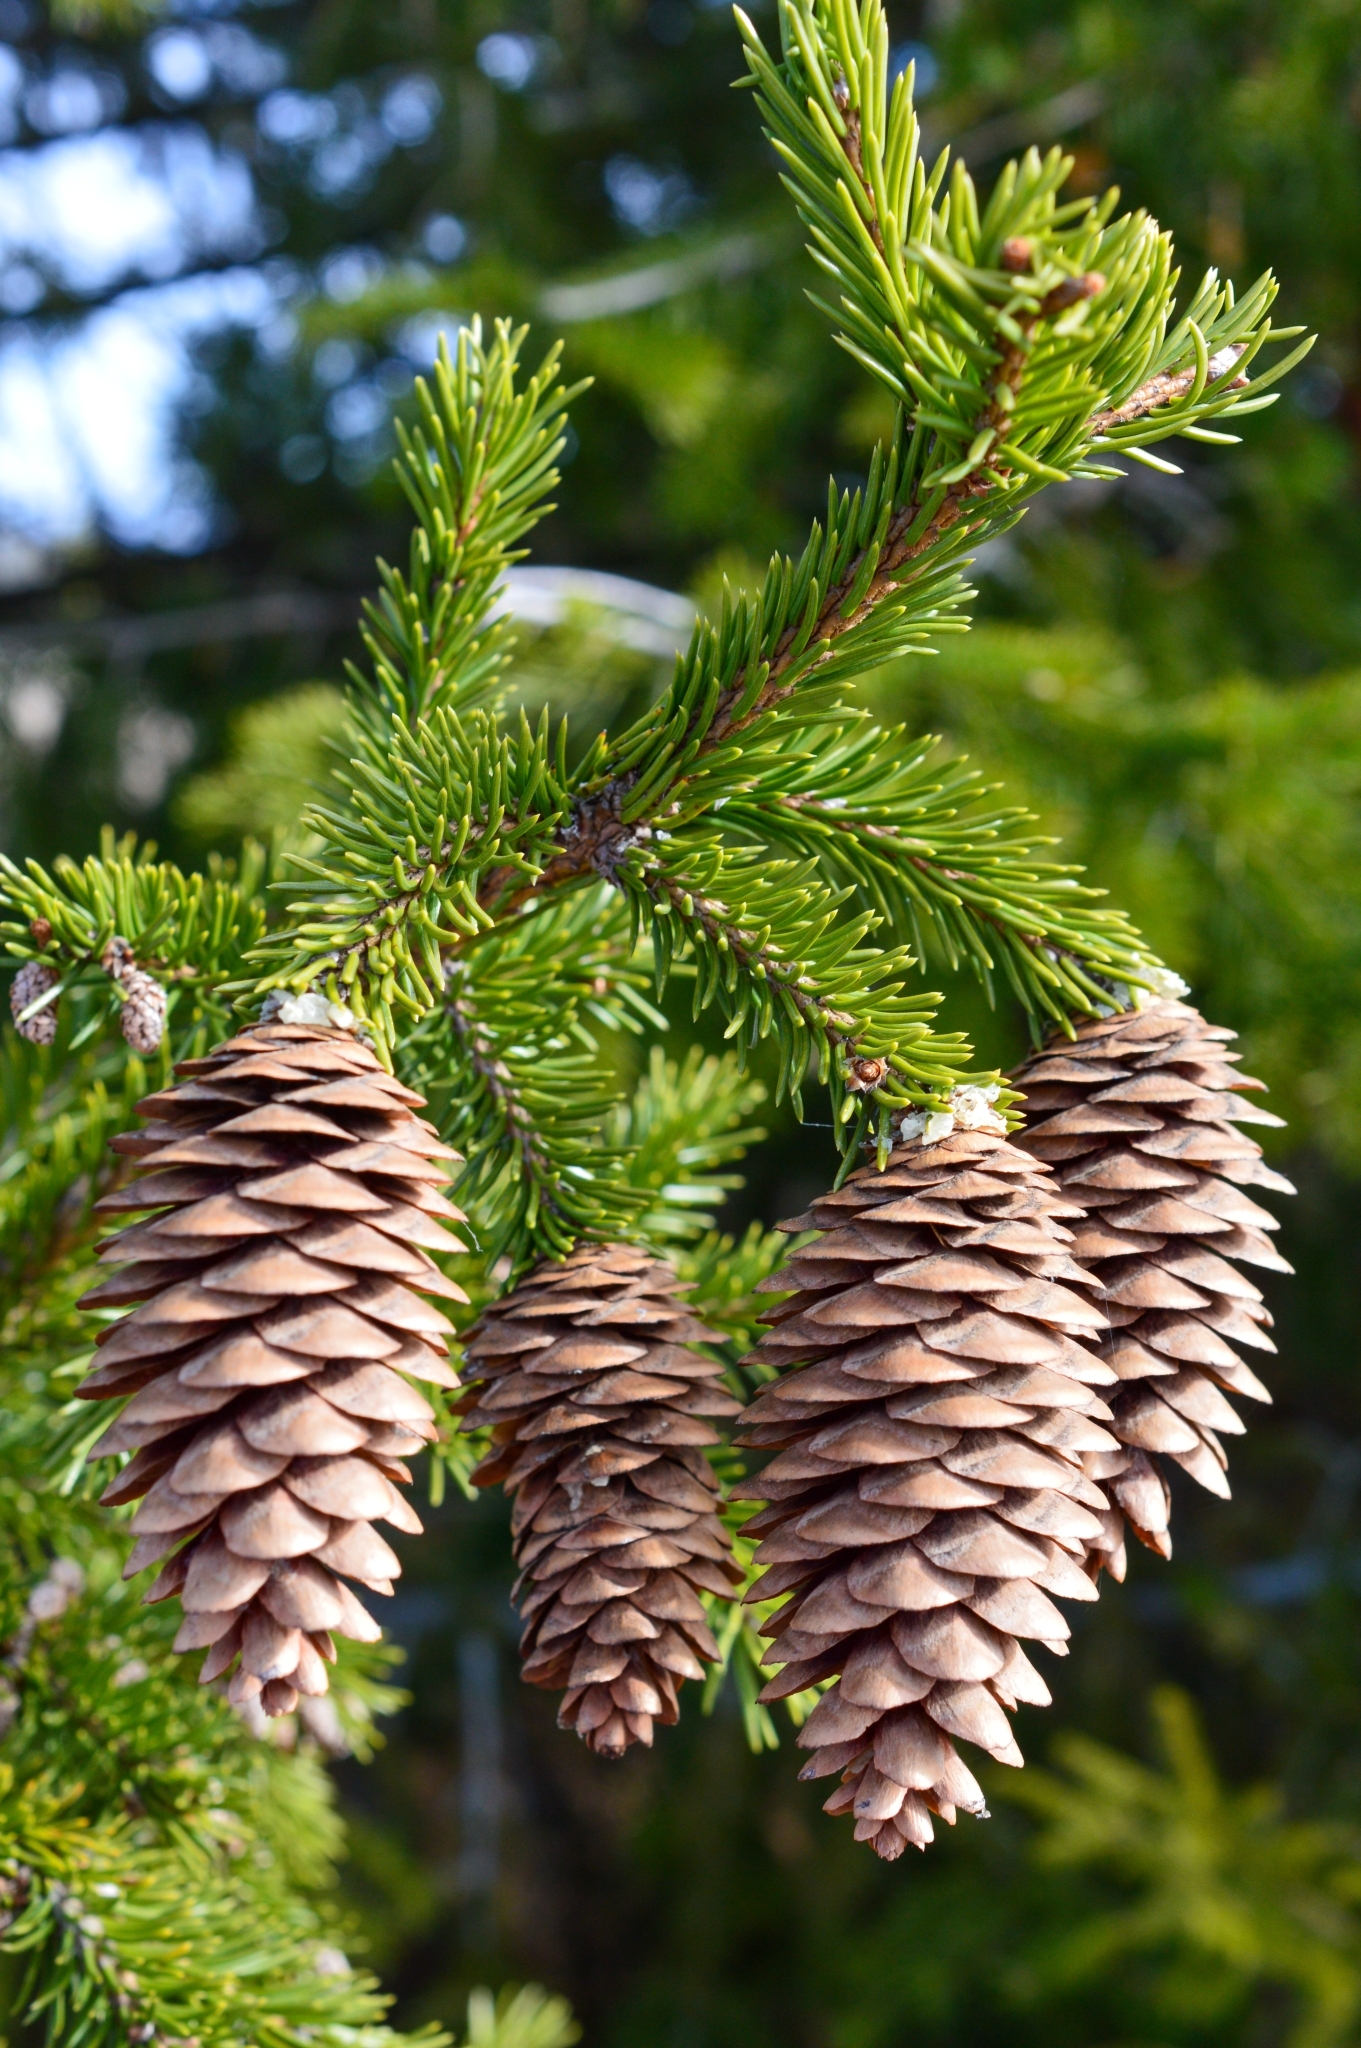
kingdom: Plantae
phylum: Tracheophyta
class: Pinopsida
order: Pinales
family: Pinaceae
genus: Picea
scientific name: Picea obovata
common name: Siberian spruce
